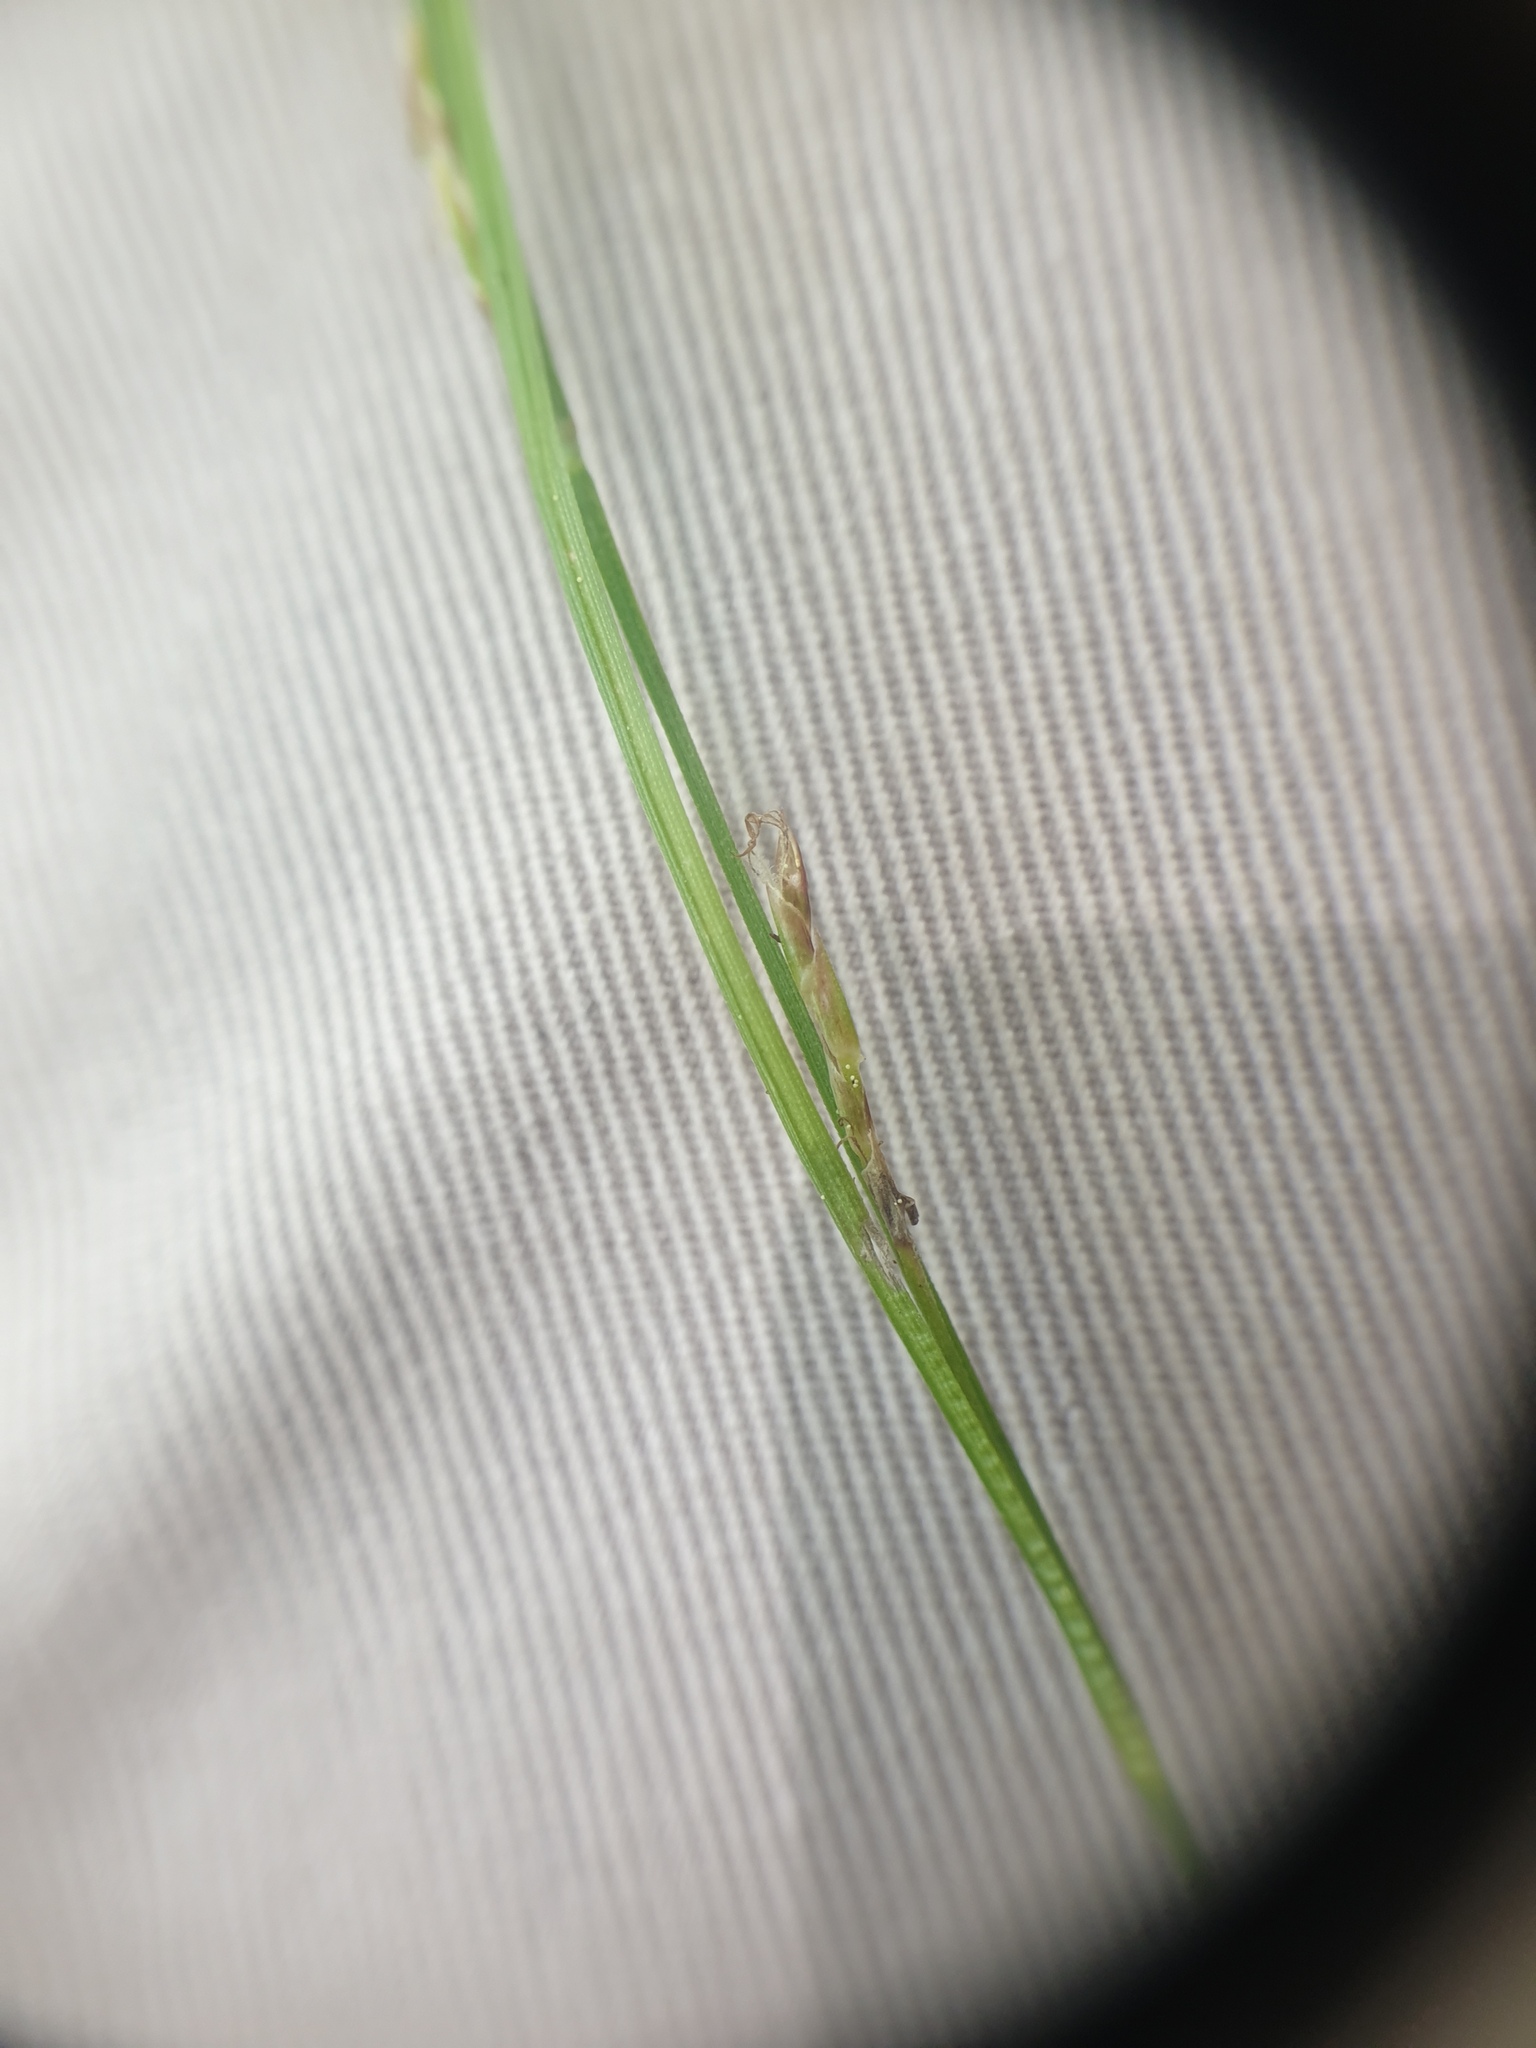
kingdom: Plantae
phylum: Tracheophyta
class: Liliopsida
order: Poales
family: Cyperaceae
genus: Carex
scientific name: Carex novae-angliae
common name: New england sedge
